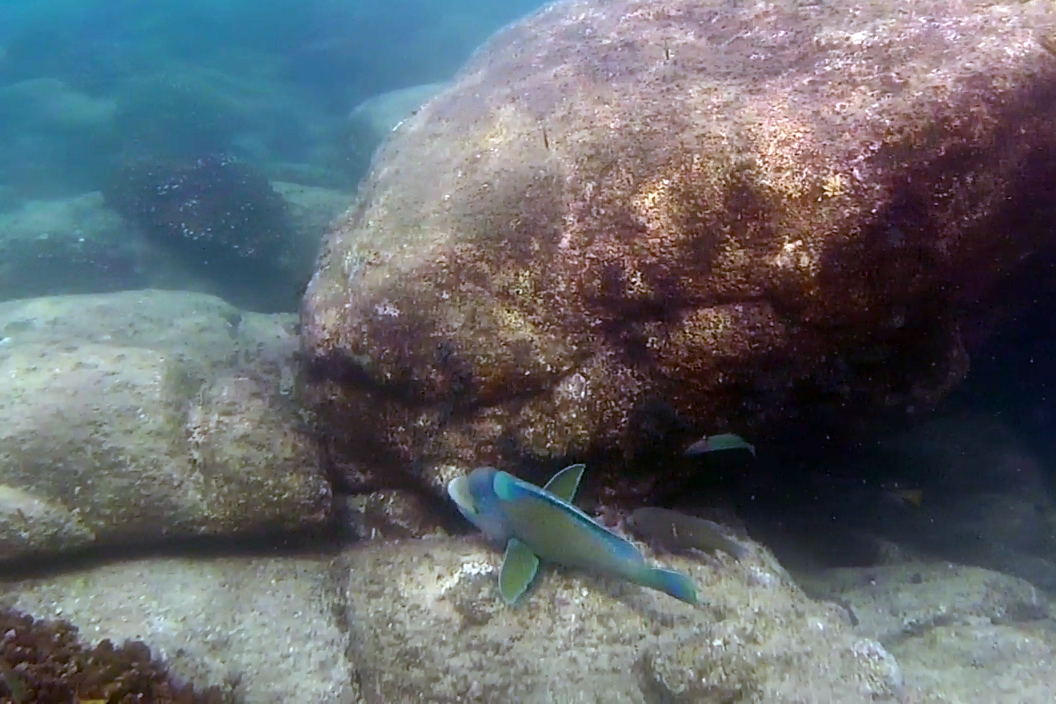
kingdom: Animalia
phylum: Chordata
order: Perciformes
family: Scaridae
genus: Scarus
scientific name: Scarus perrico
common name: Bumphead parrotfish
